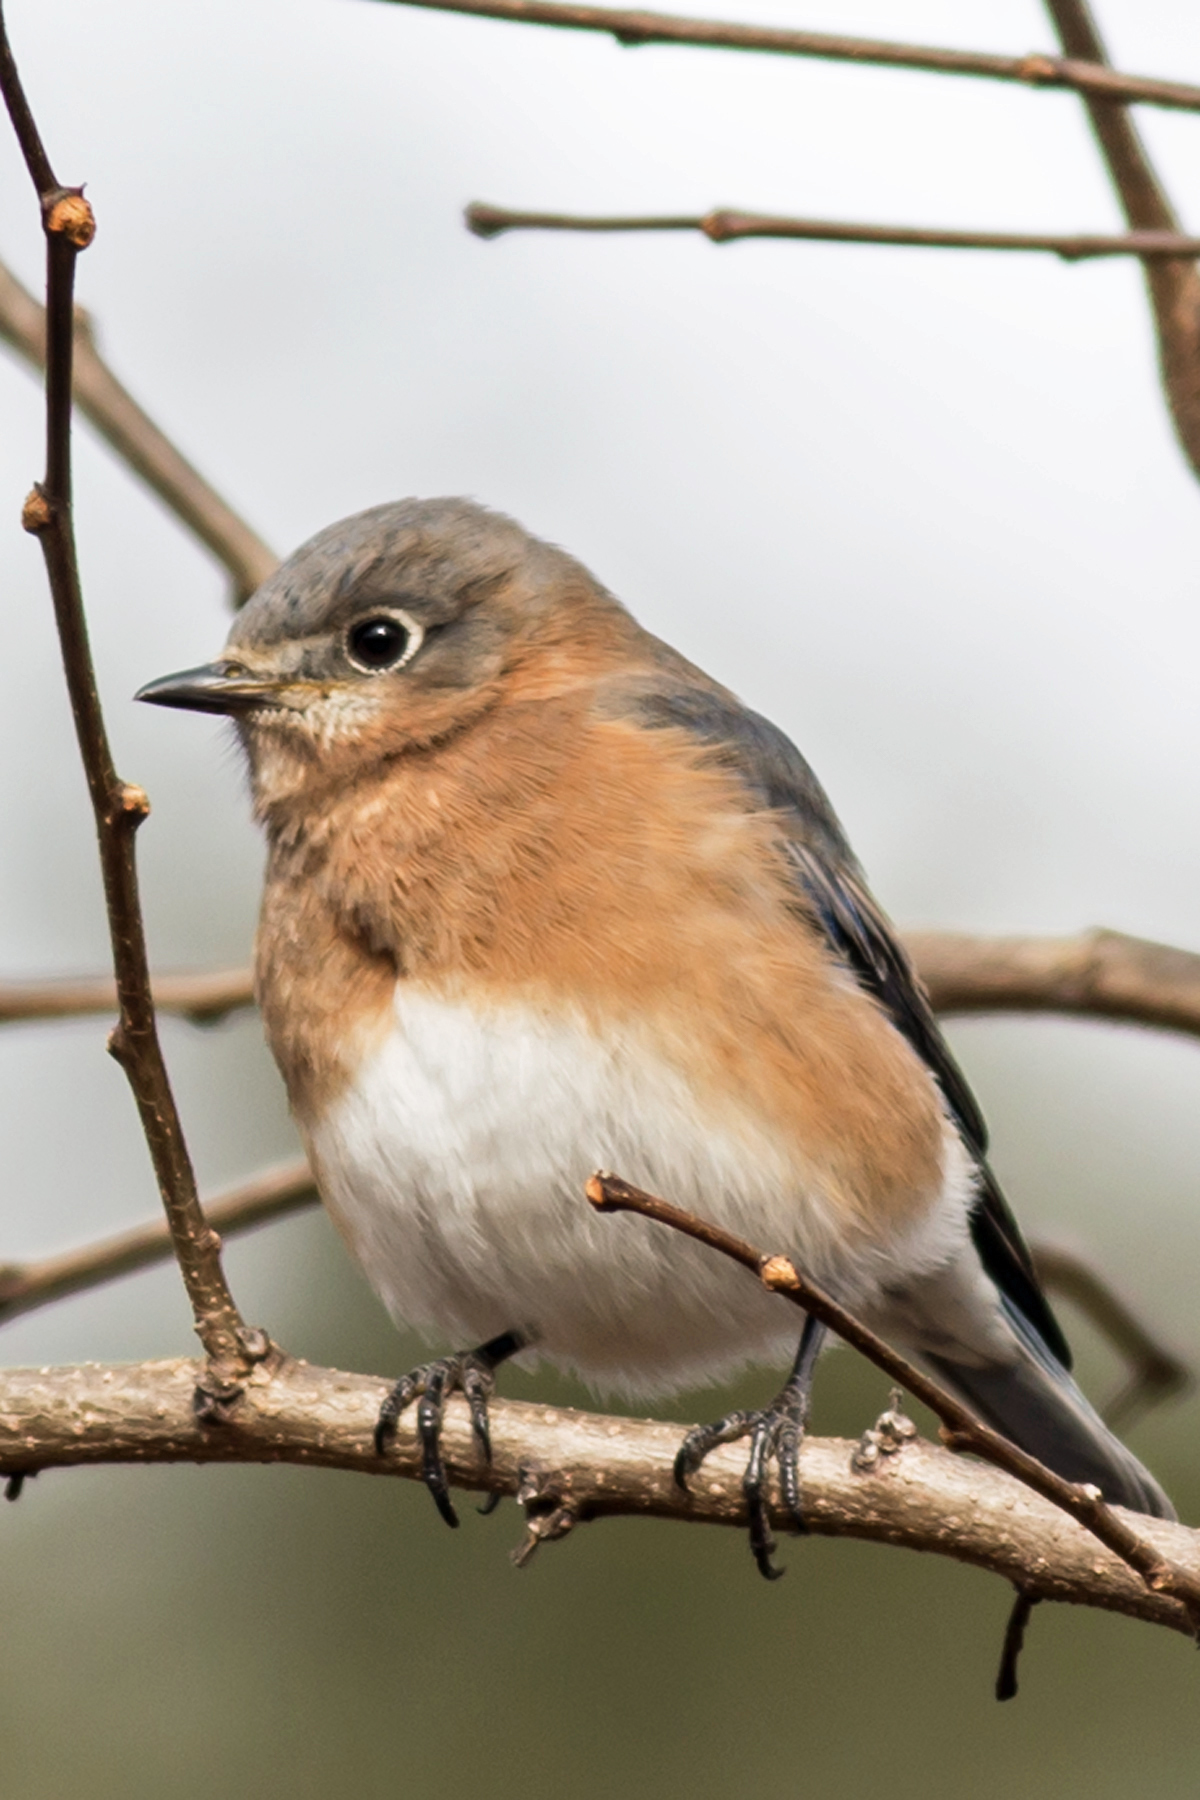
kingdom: Animalia
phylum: Chordata
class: Aves
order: Passeriformes
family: Turdidae
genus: Sialia
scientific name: Sialia sialis
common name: Eastern bluebird
